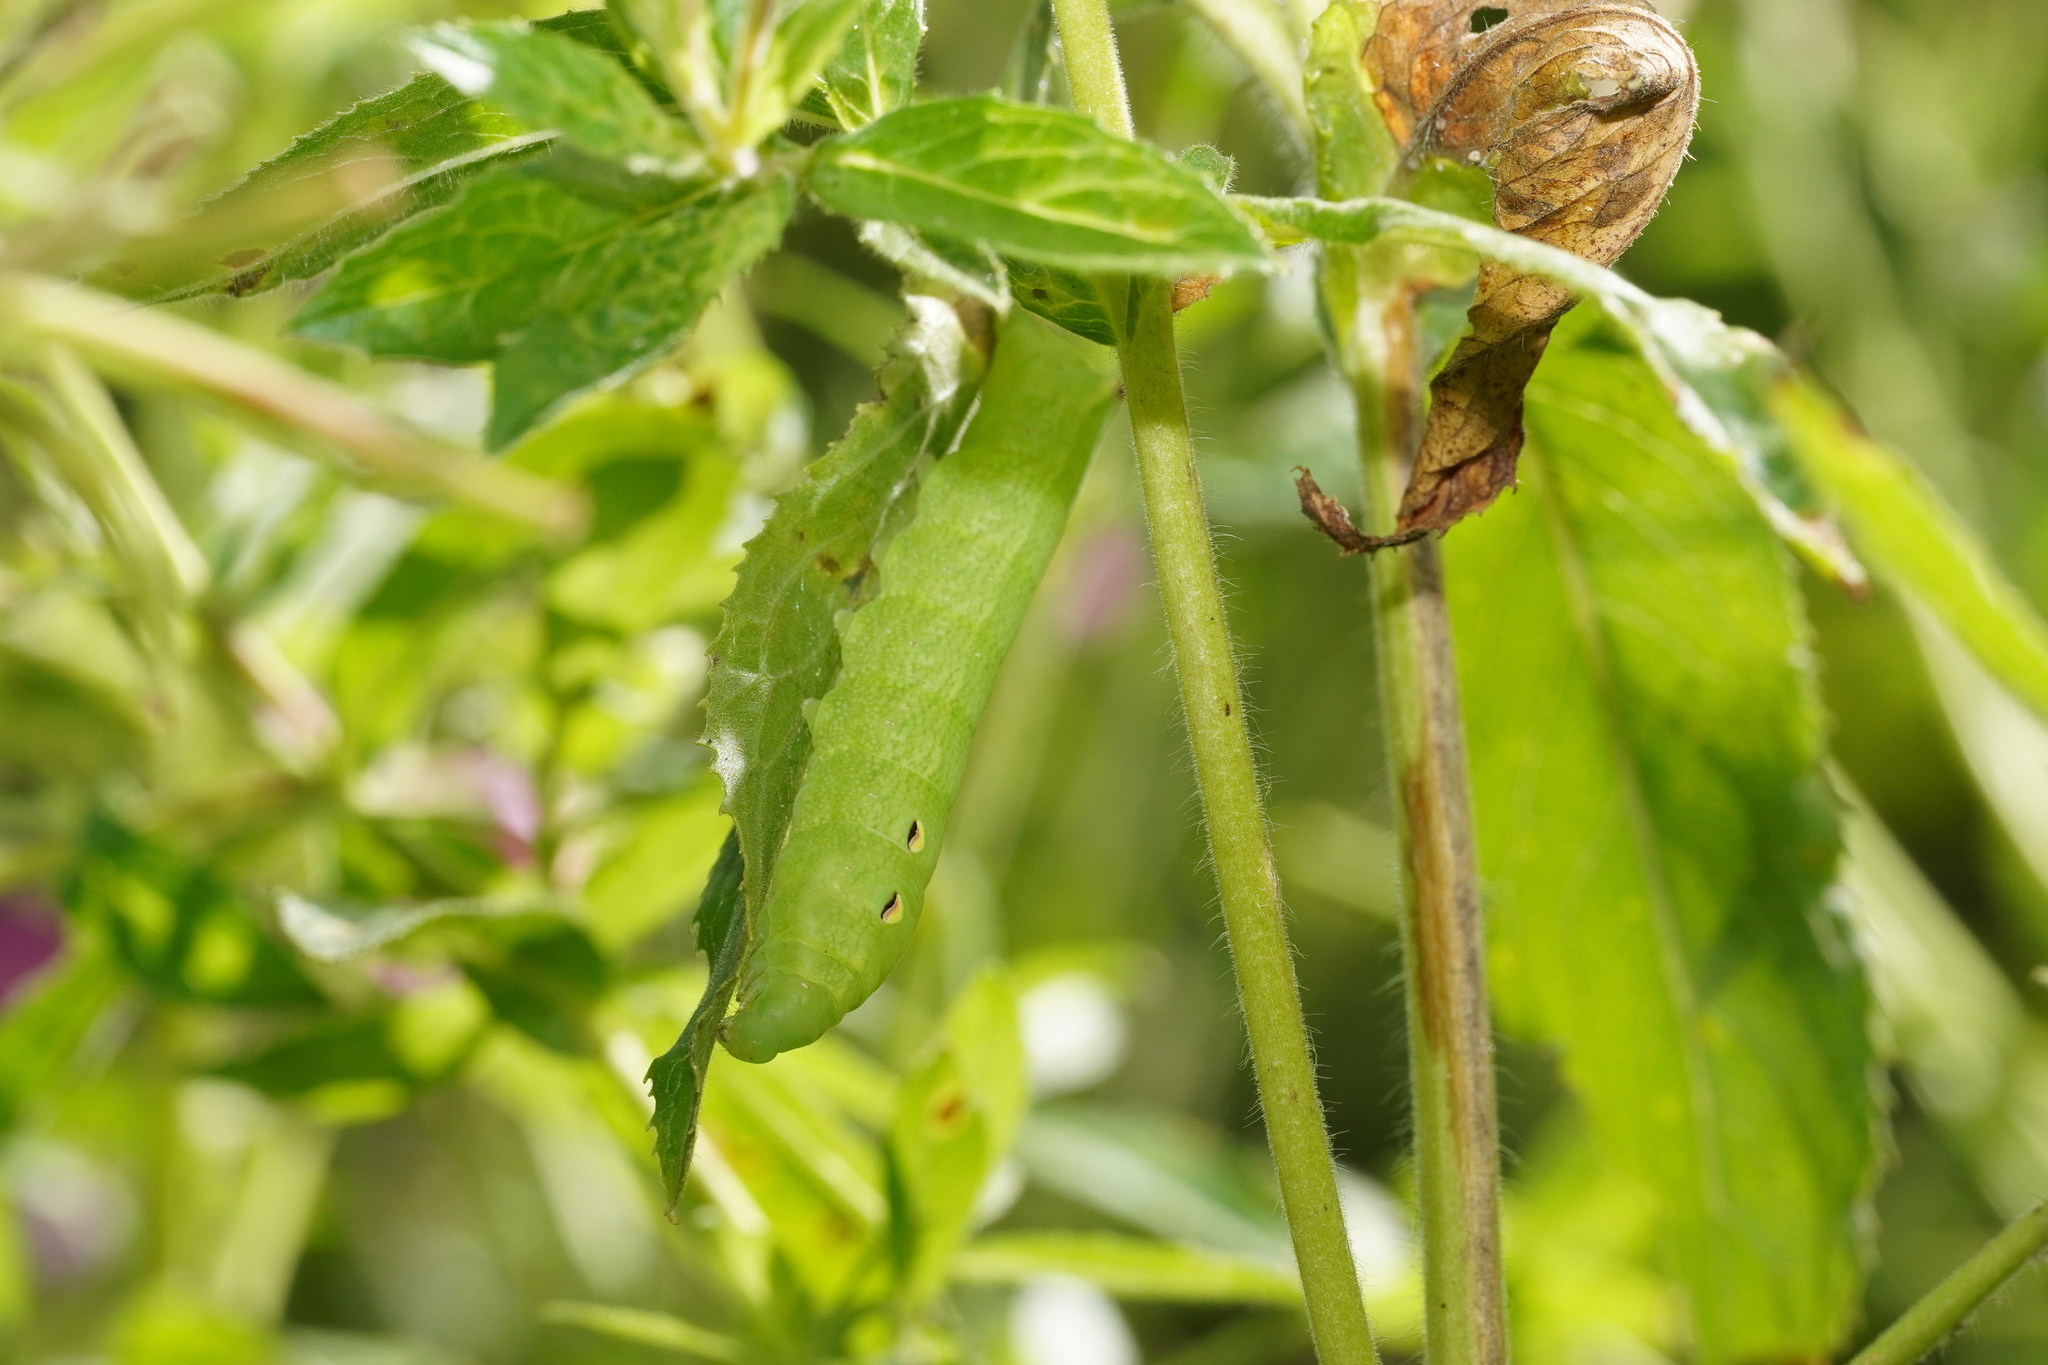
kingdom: Animalia
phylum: Arthropoda
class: Insecta
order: Lepidoptera
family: Sphingidae
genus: Deilephila
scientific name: Deilephila elpenor
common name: Elephant hawk-moth
